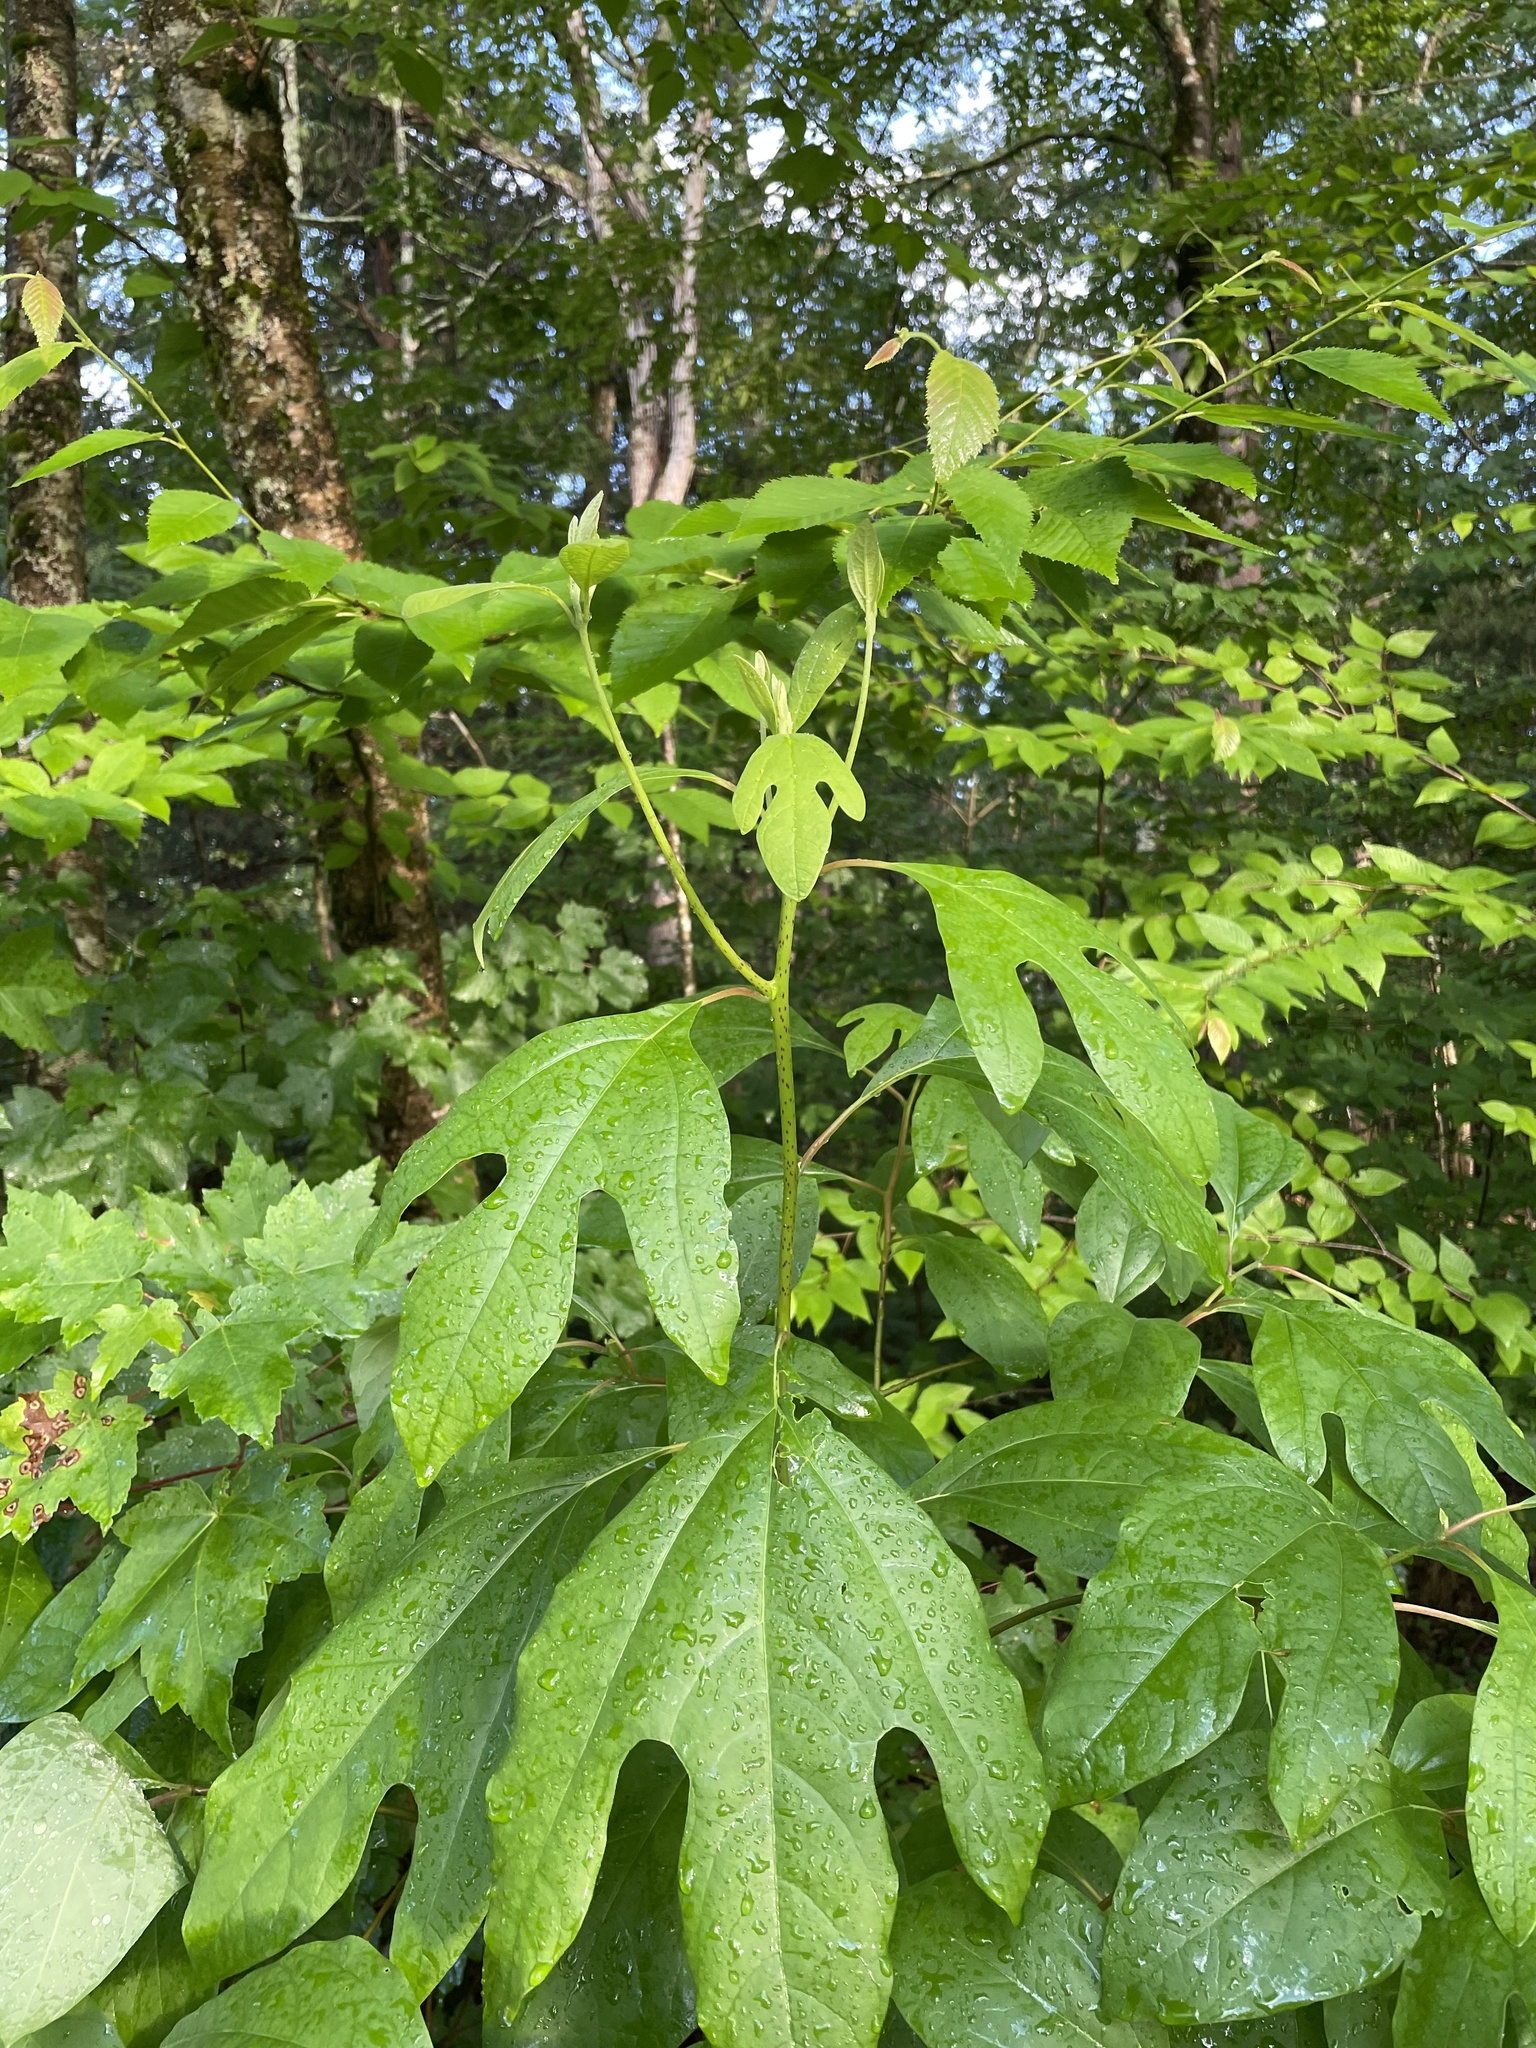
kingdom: Plantae
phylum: Tracheophyta
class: Magnoliopsida
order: Laurales
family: Lauraceae
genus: Sassafras
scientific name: Sassafras albidum
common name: Sassafras
